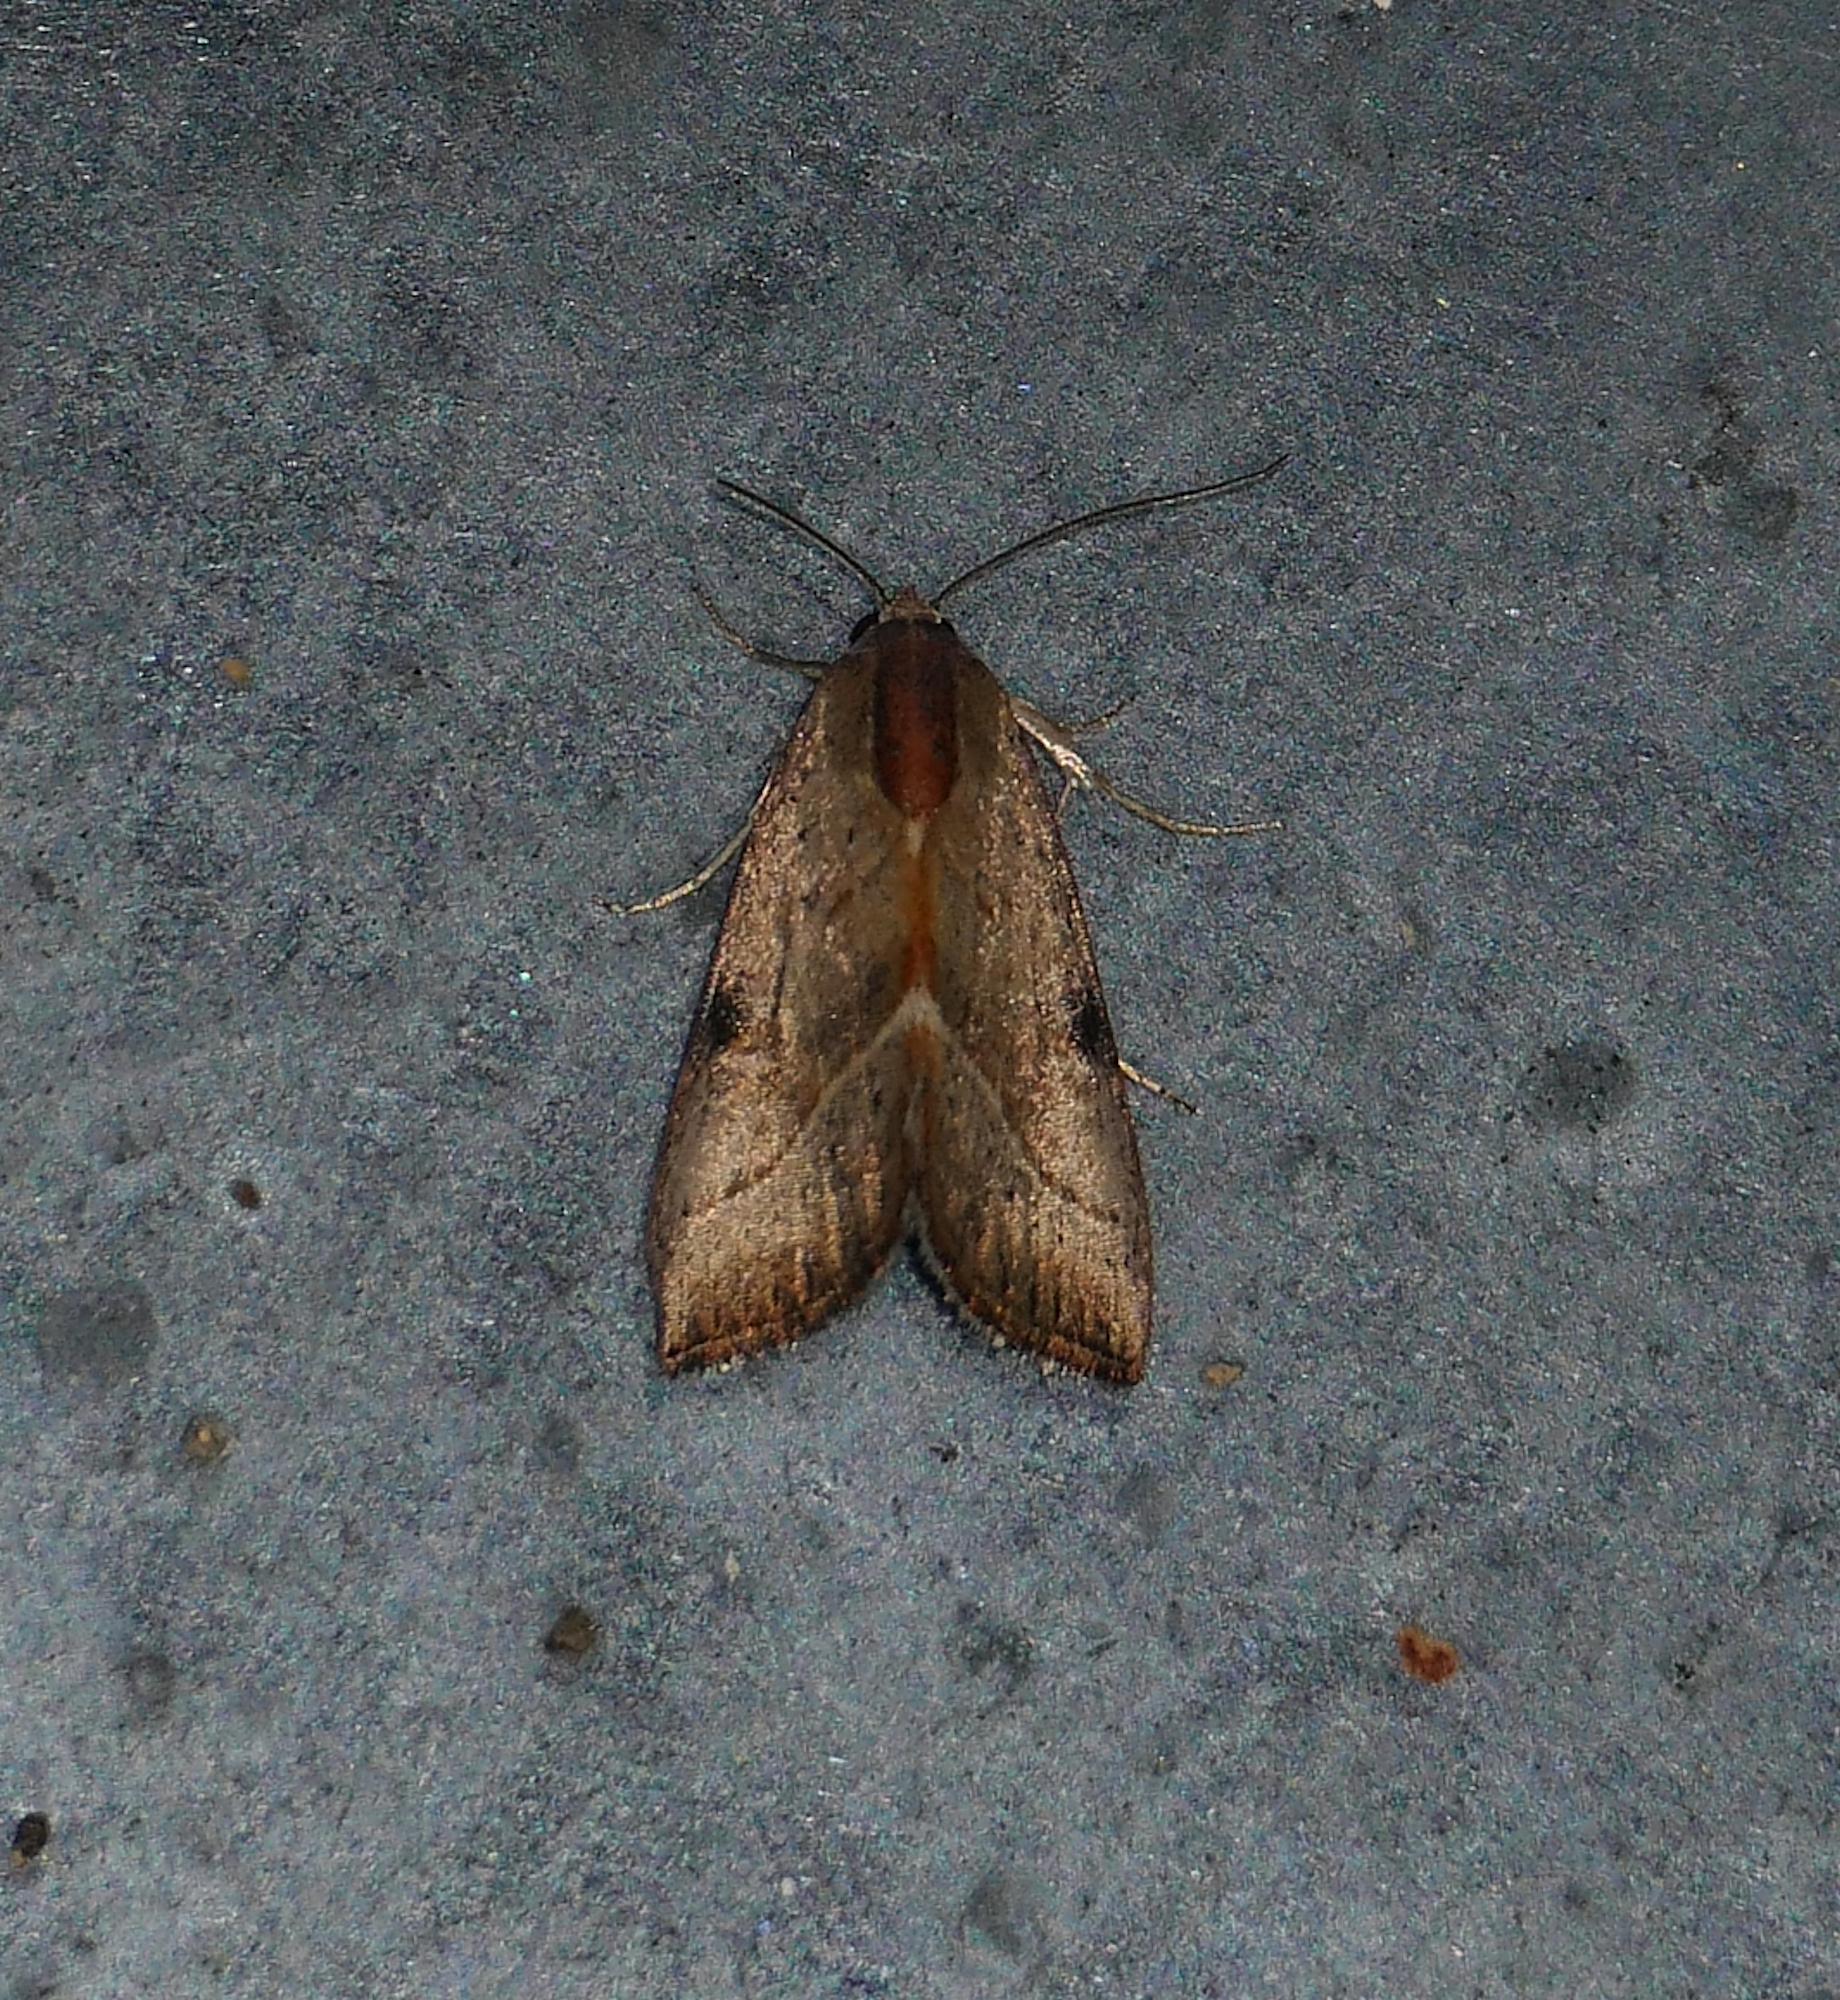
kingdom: Animalia
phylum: Arthropoda
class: Insecta
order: Lepidoptera
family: Noctuidae
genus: Galgula
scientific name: Galgula partita
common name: Wedgeling
